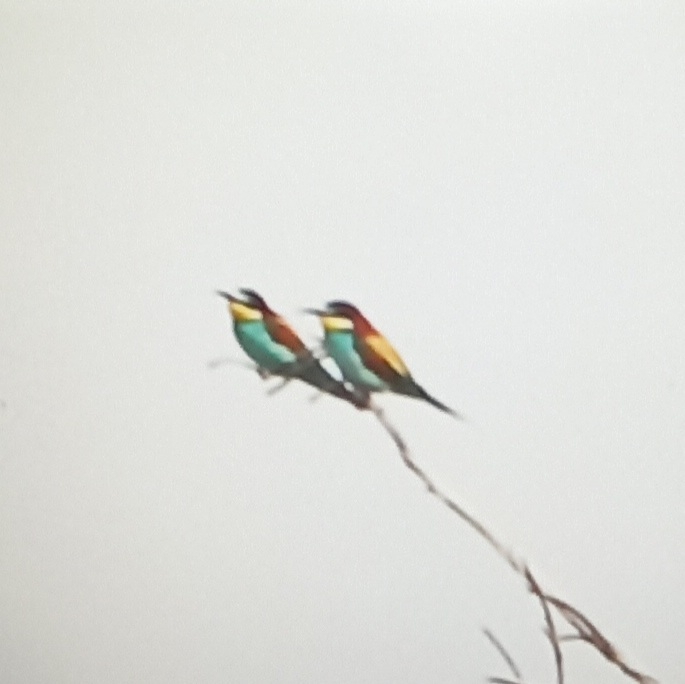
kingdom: Animalia
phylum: Chordata
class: Aves
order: Coraciiformes
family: Meropidae
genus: Merops
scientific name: Merops apiaster
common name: European bee-eater
